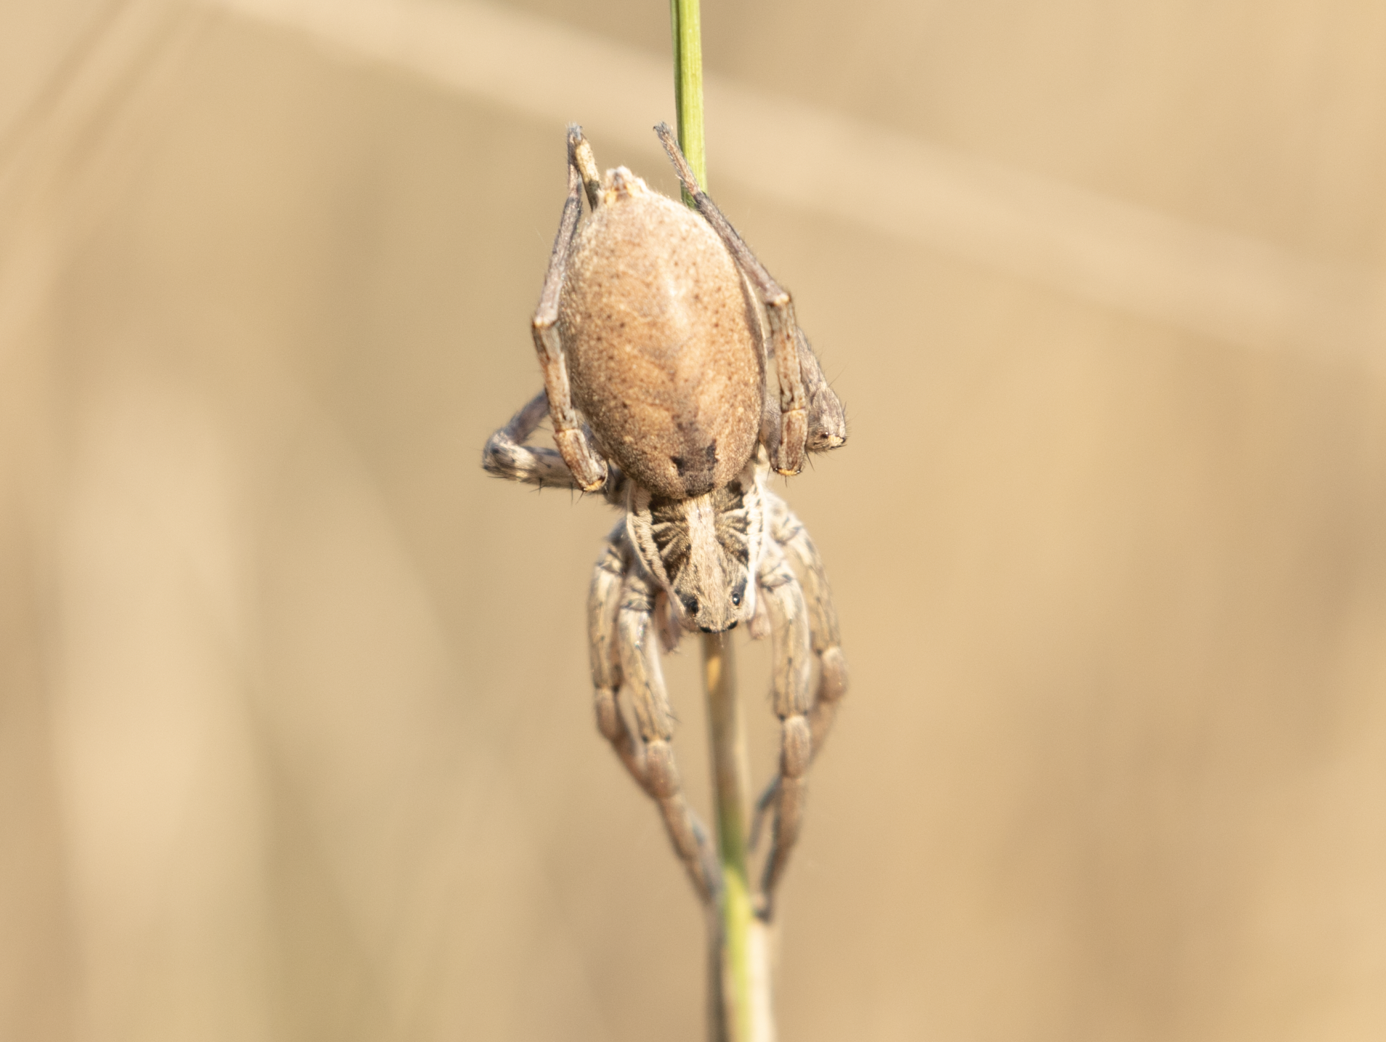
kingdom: Animalia
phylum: Arthropoda
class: Arachnida
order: Araneae
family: Lycosidae
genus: Hogna
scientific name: Hogna radiata
